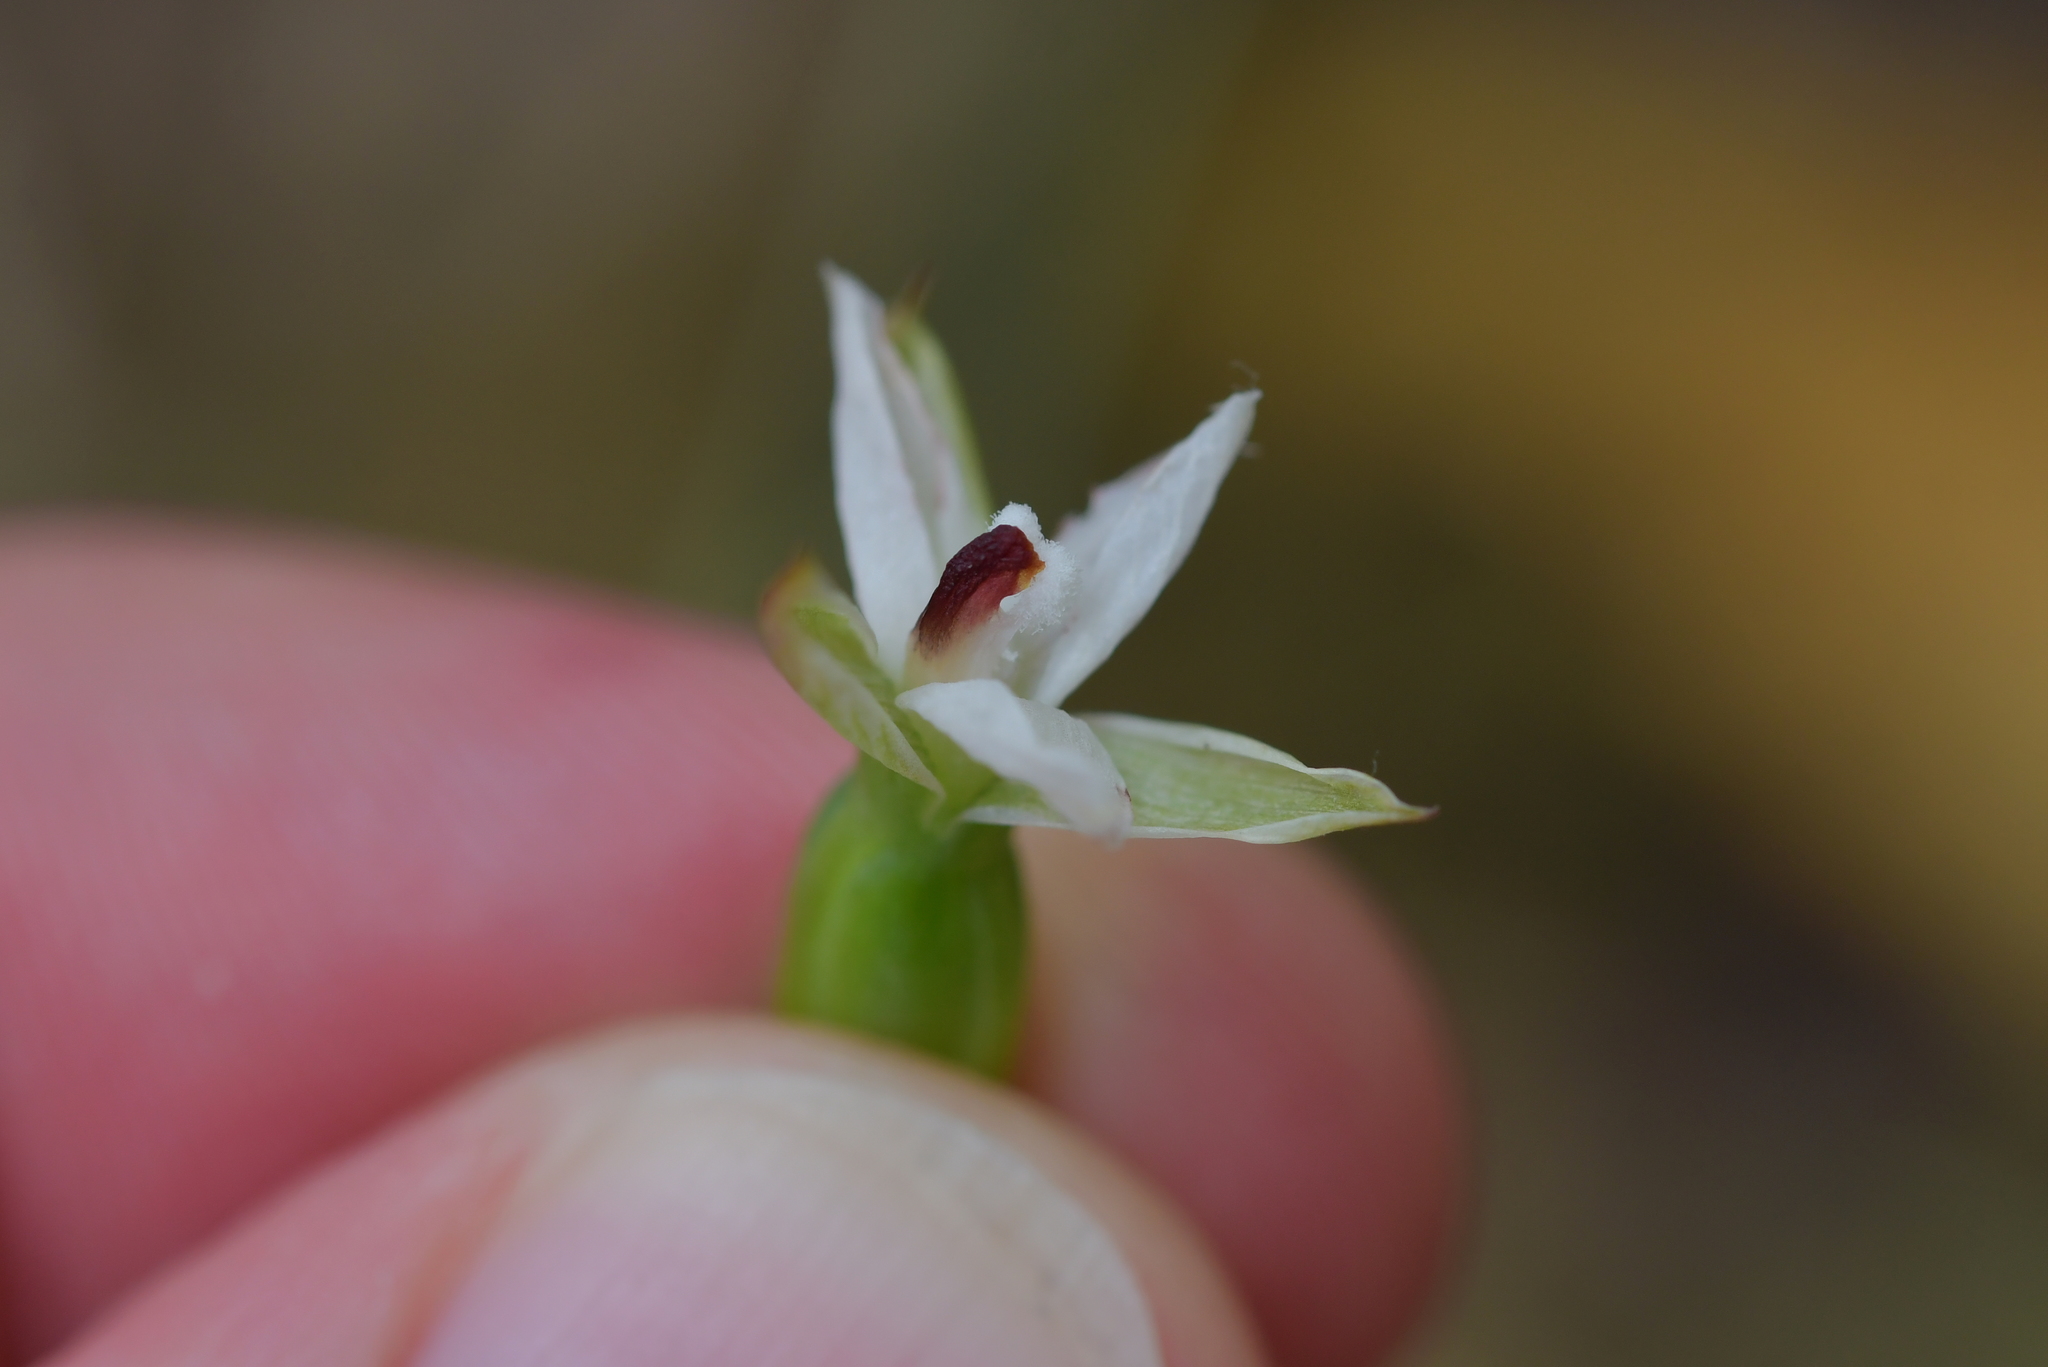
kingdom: Plantae
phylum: Tracheophyta
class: Liliopsida
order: Asparagales
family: Orchidaceae
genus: Thelymitra
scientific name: Thelymitra longifolia
